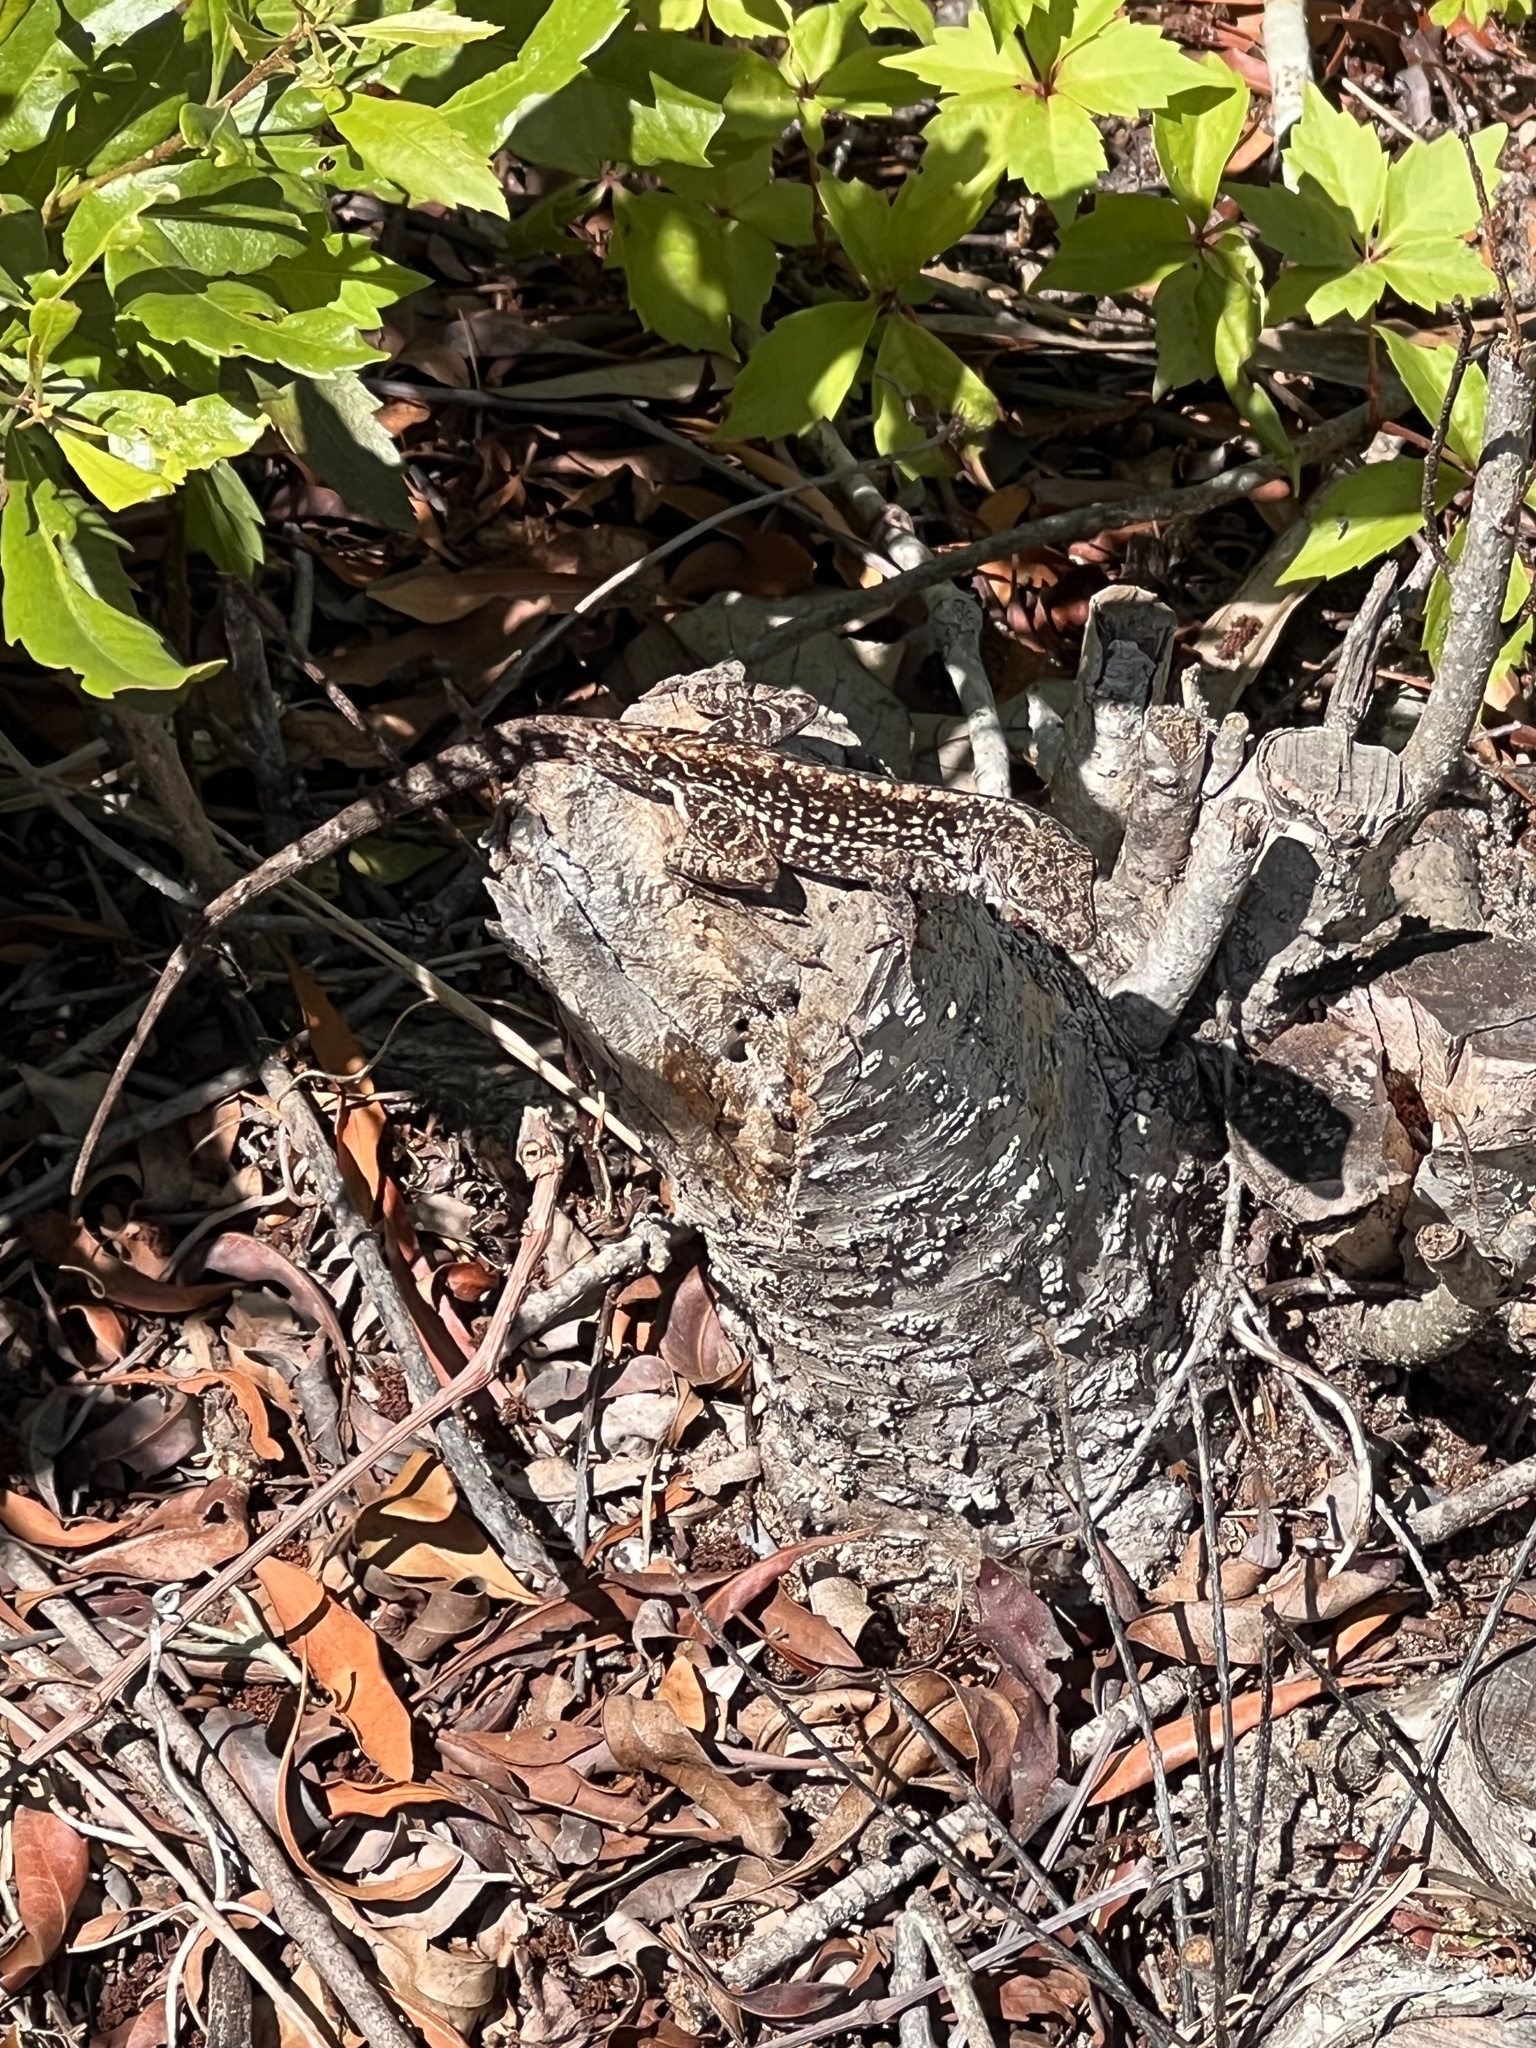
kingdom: Animalia
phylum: Chordata
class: Squamata
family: Dactyloidae
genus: Anolis
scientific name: Anolis sagrei
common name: Brown anole
